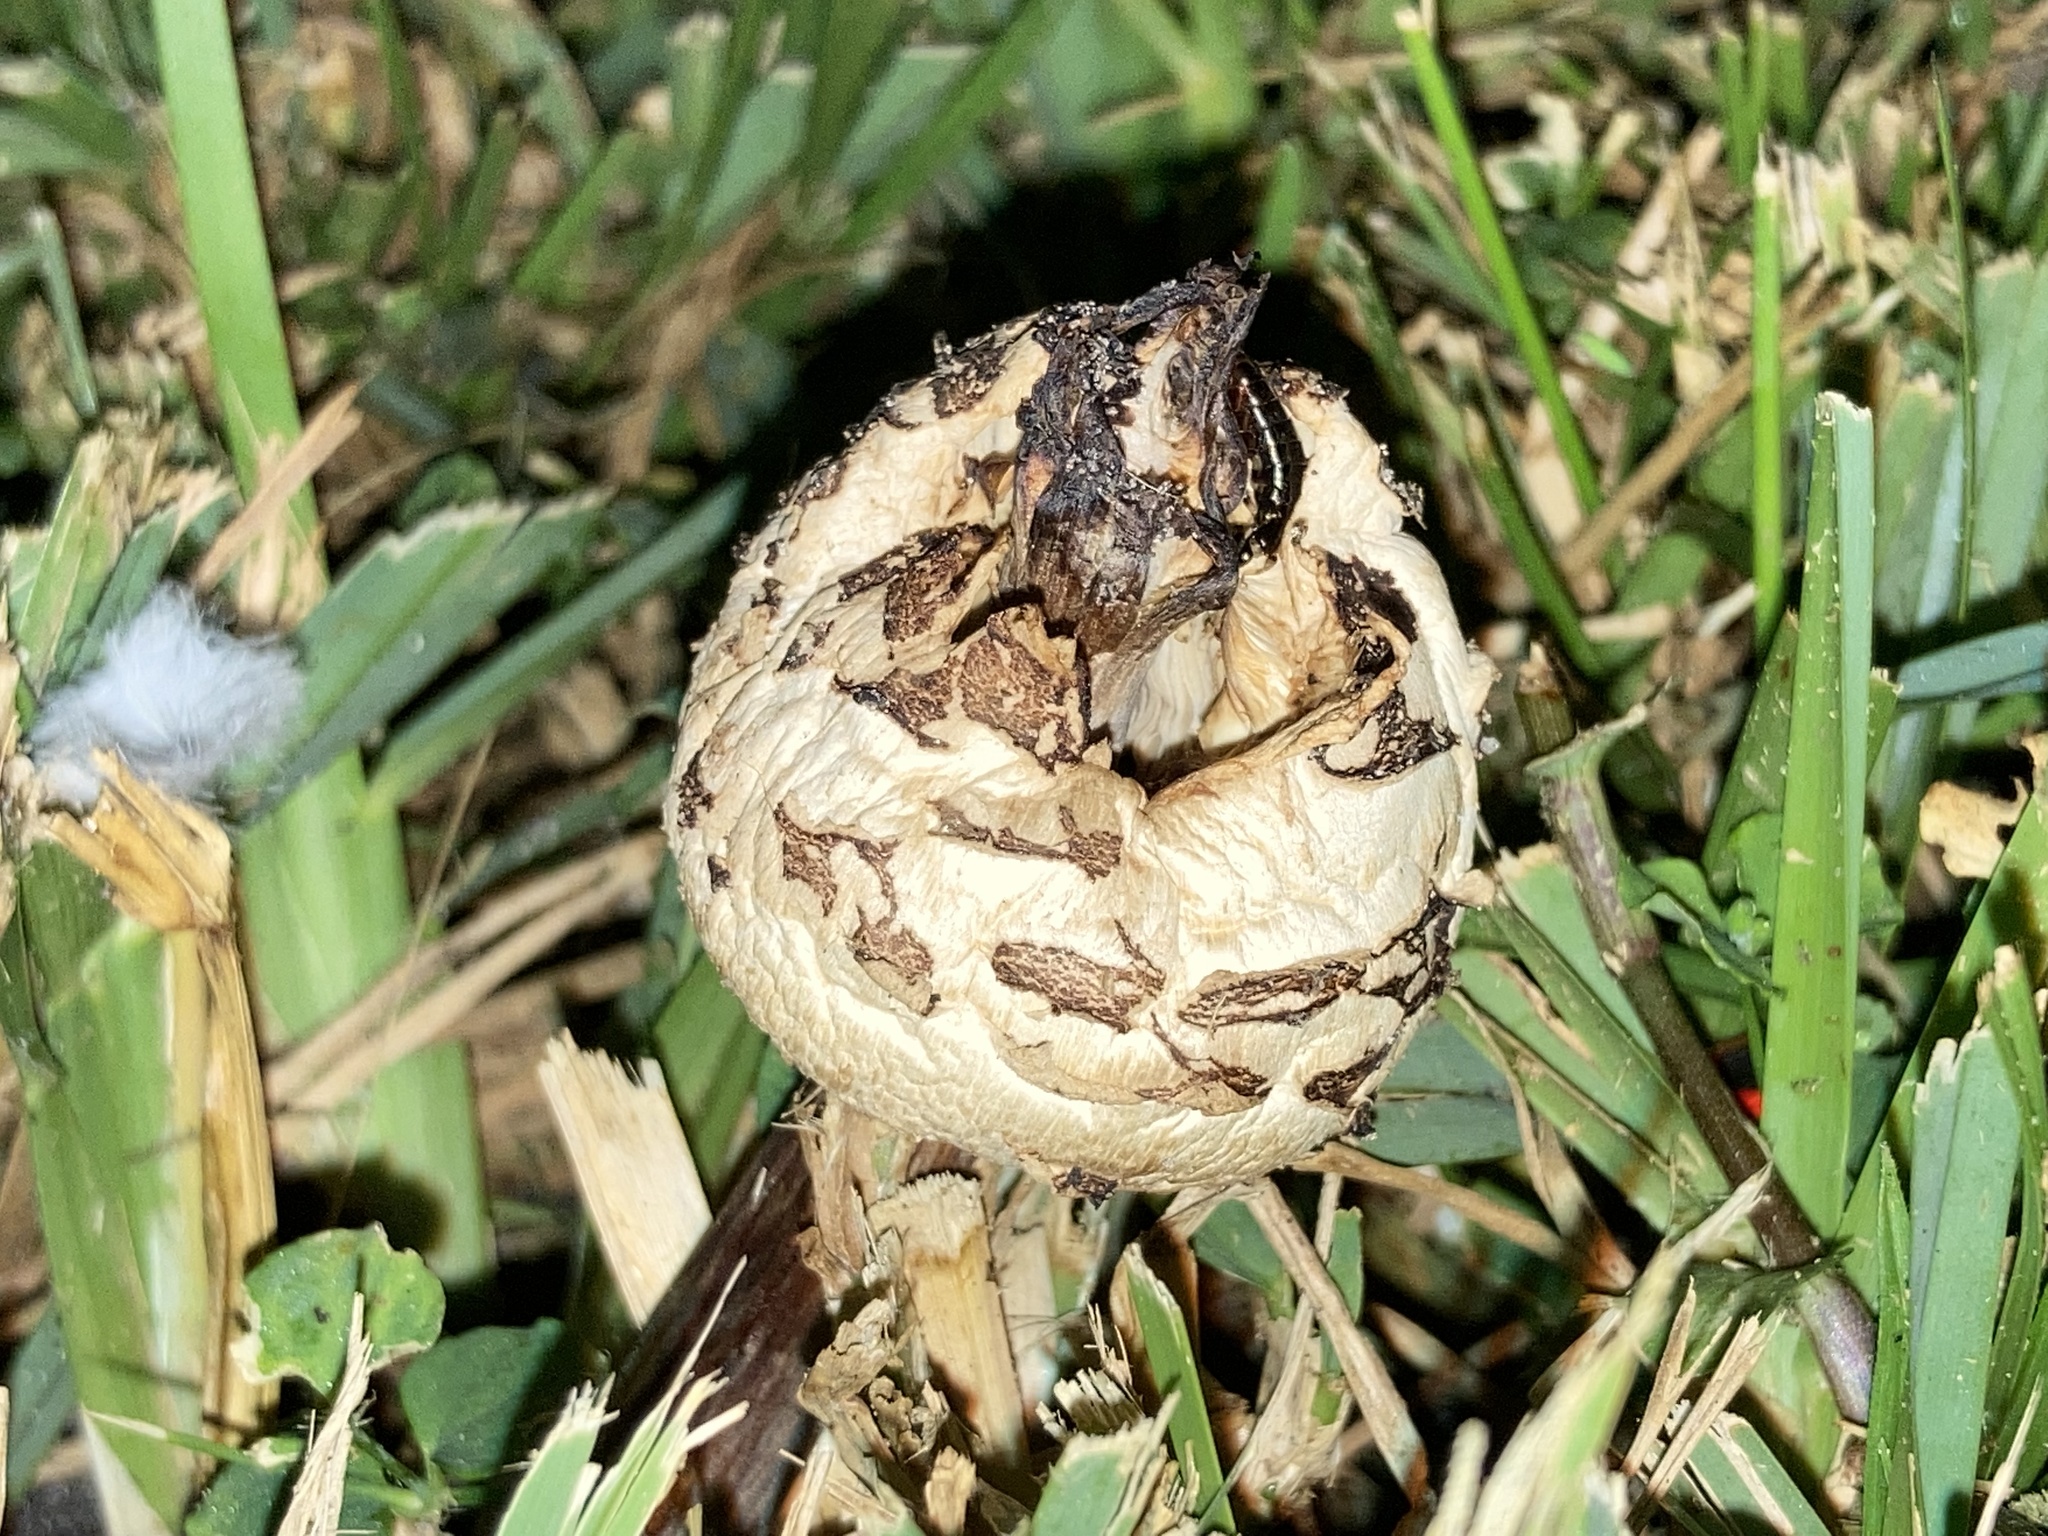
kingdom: Fungi
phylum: Basidiomycota
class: Agaricomycetes
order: Agaricales
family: Agaricaceae
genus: Chlorophyllum
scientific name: Chlorophyllum molybdites
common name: False parasol
